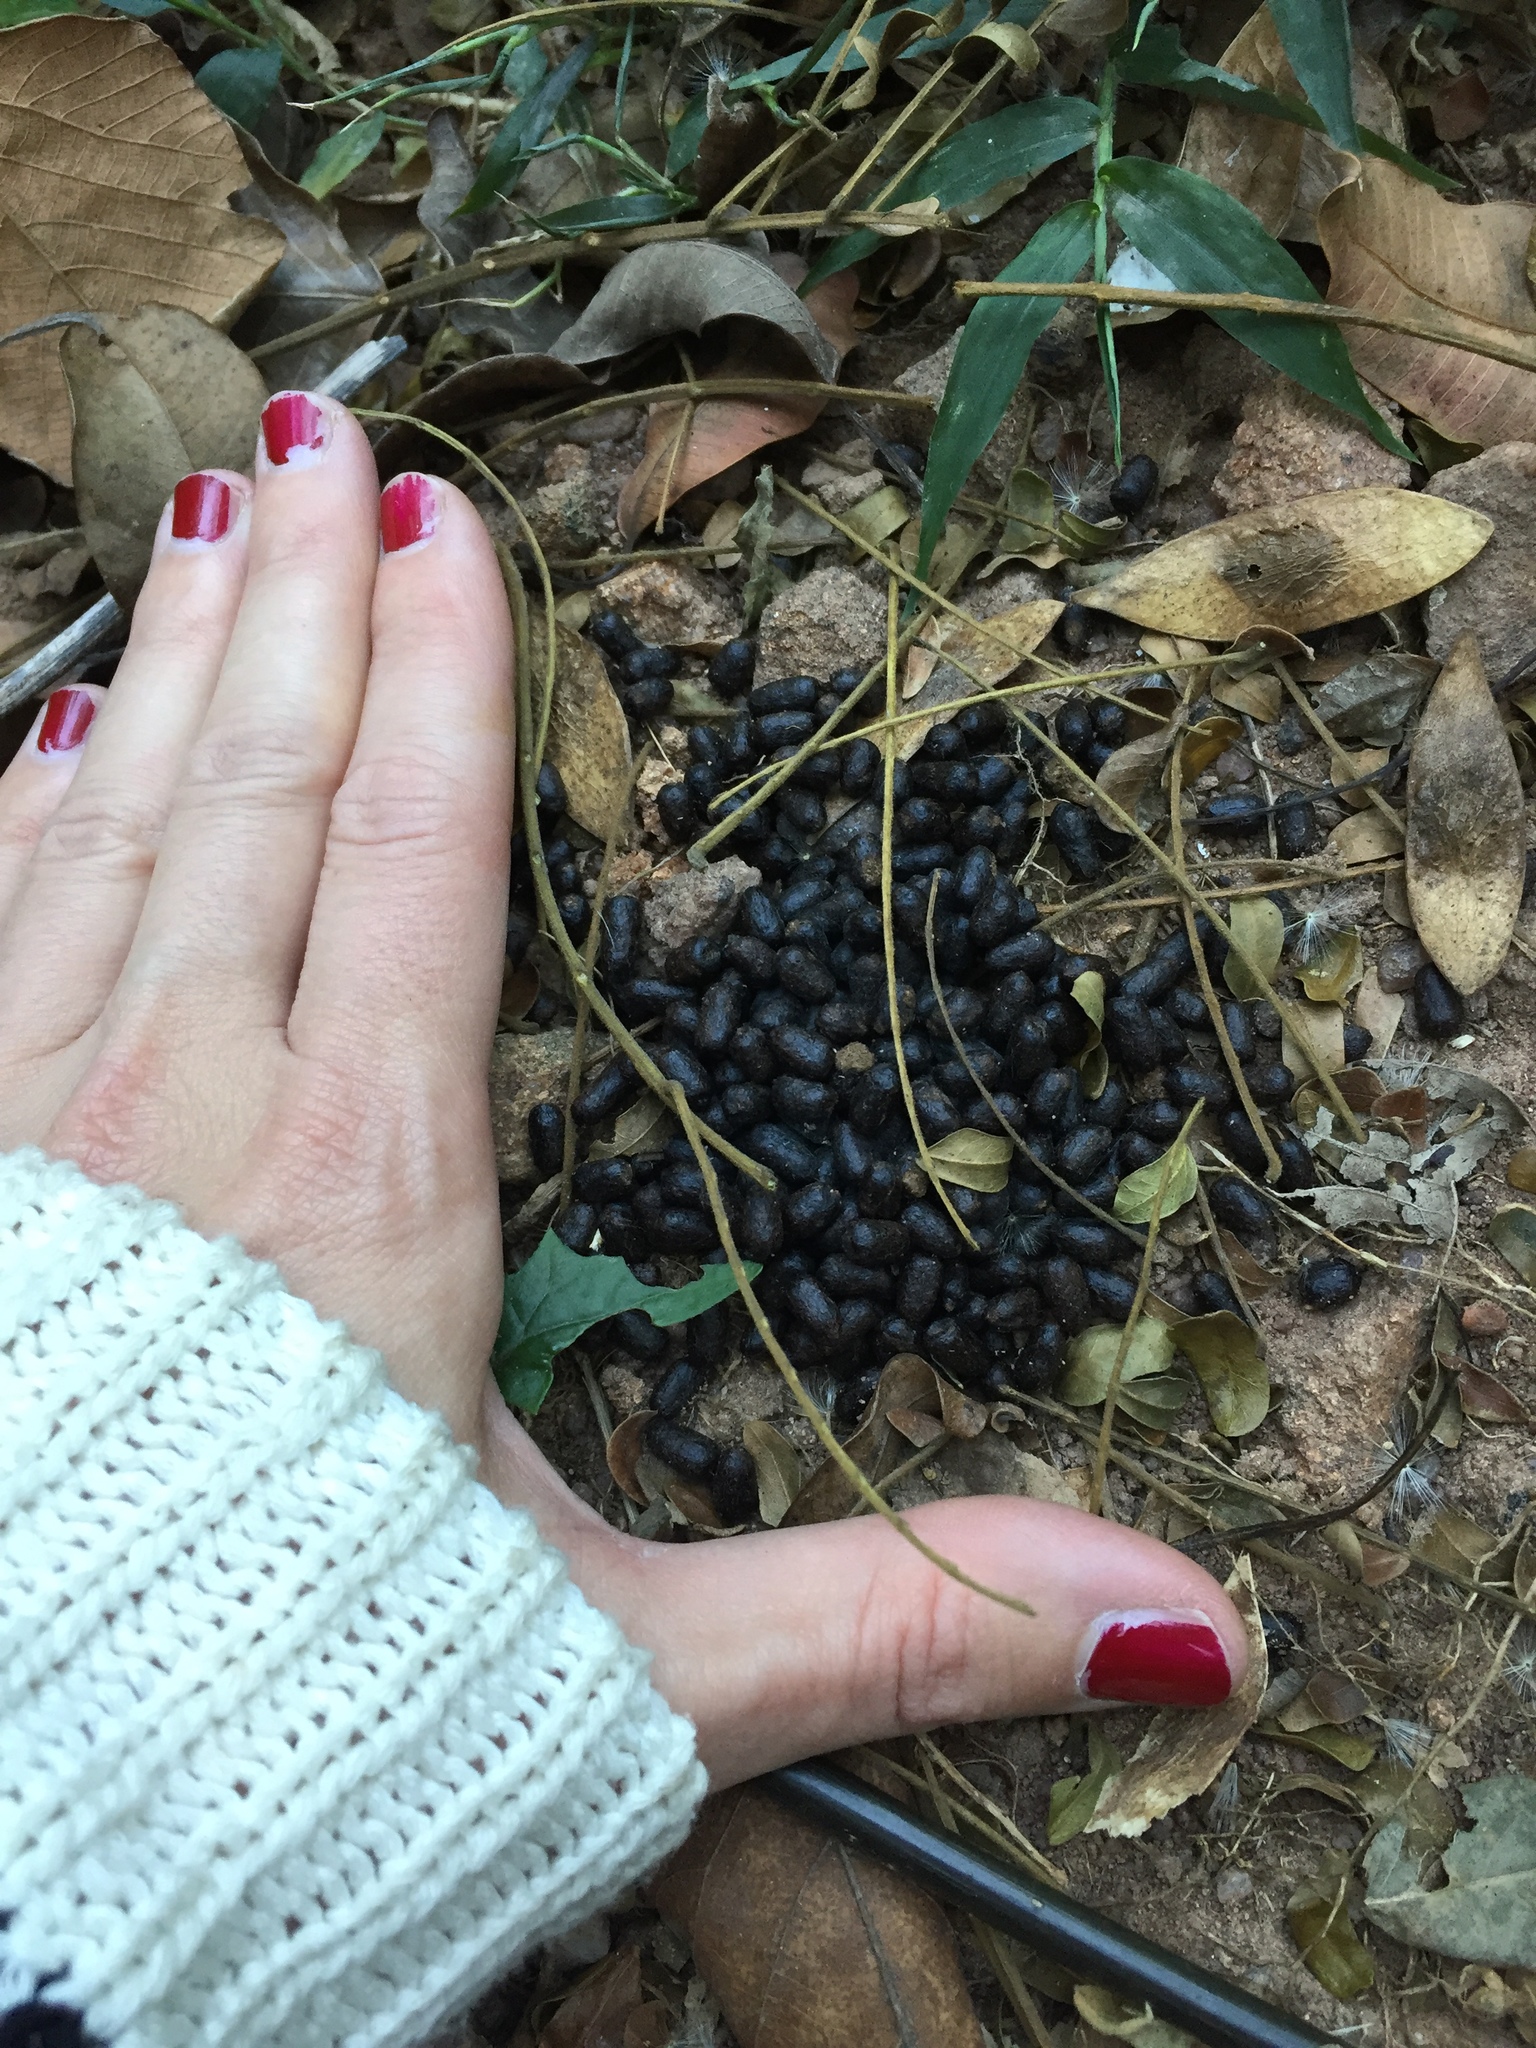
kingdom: Animalia
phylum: Chordata
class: Mammalia
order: Artiodactyla
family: Bovidae
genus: Philantomba
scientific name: Philantomba monticola
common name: Blue duiker
